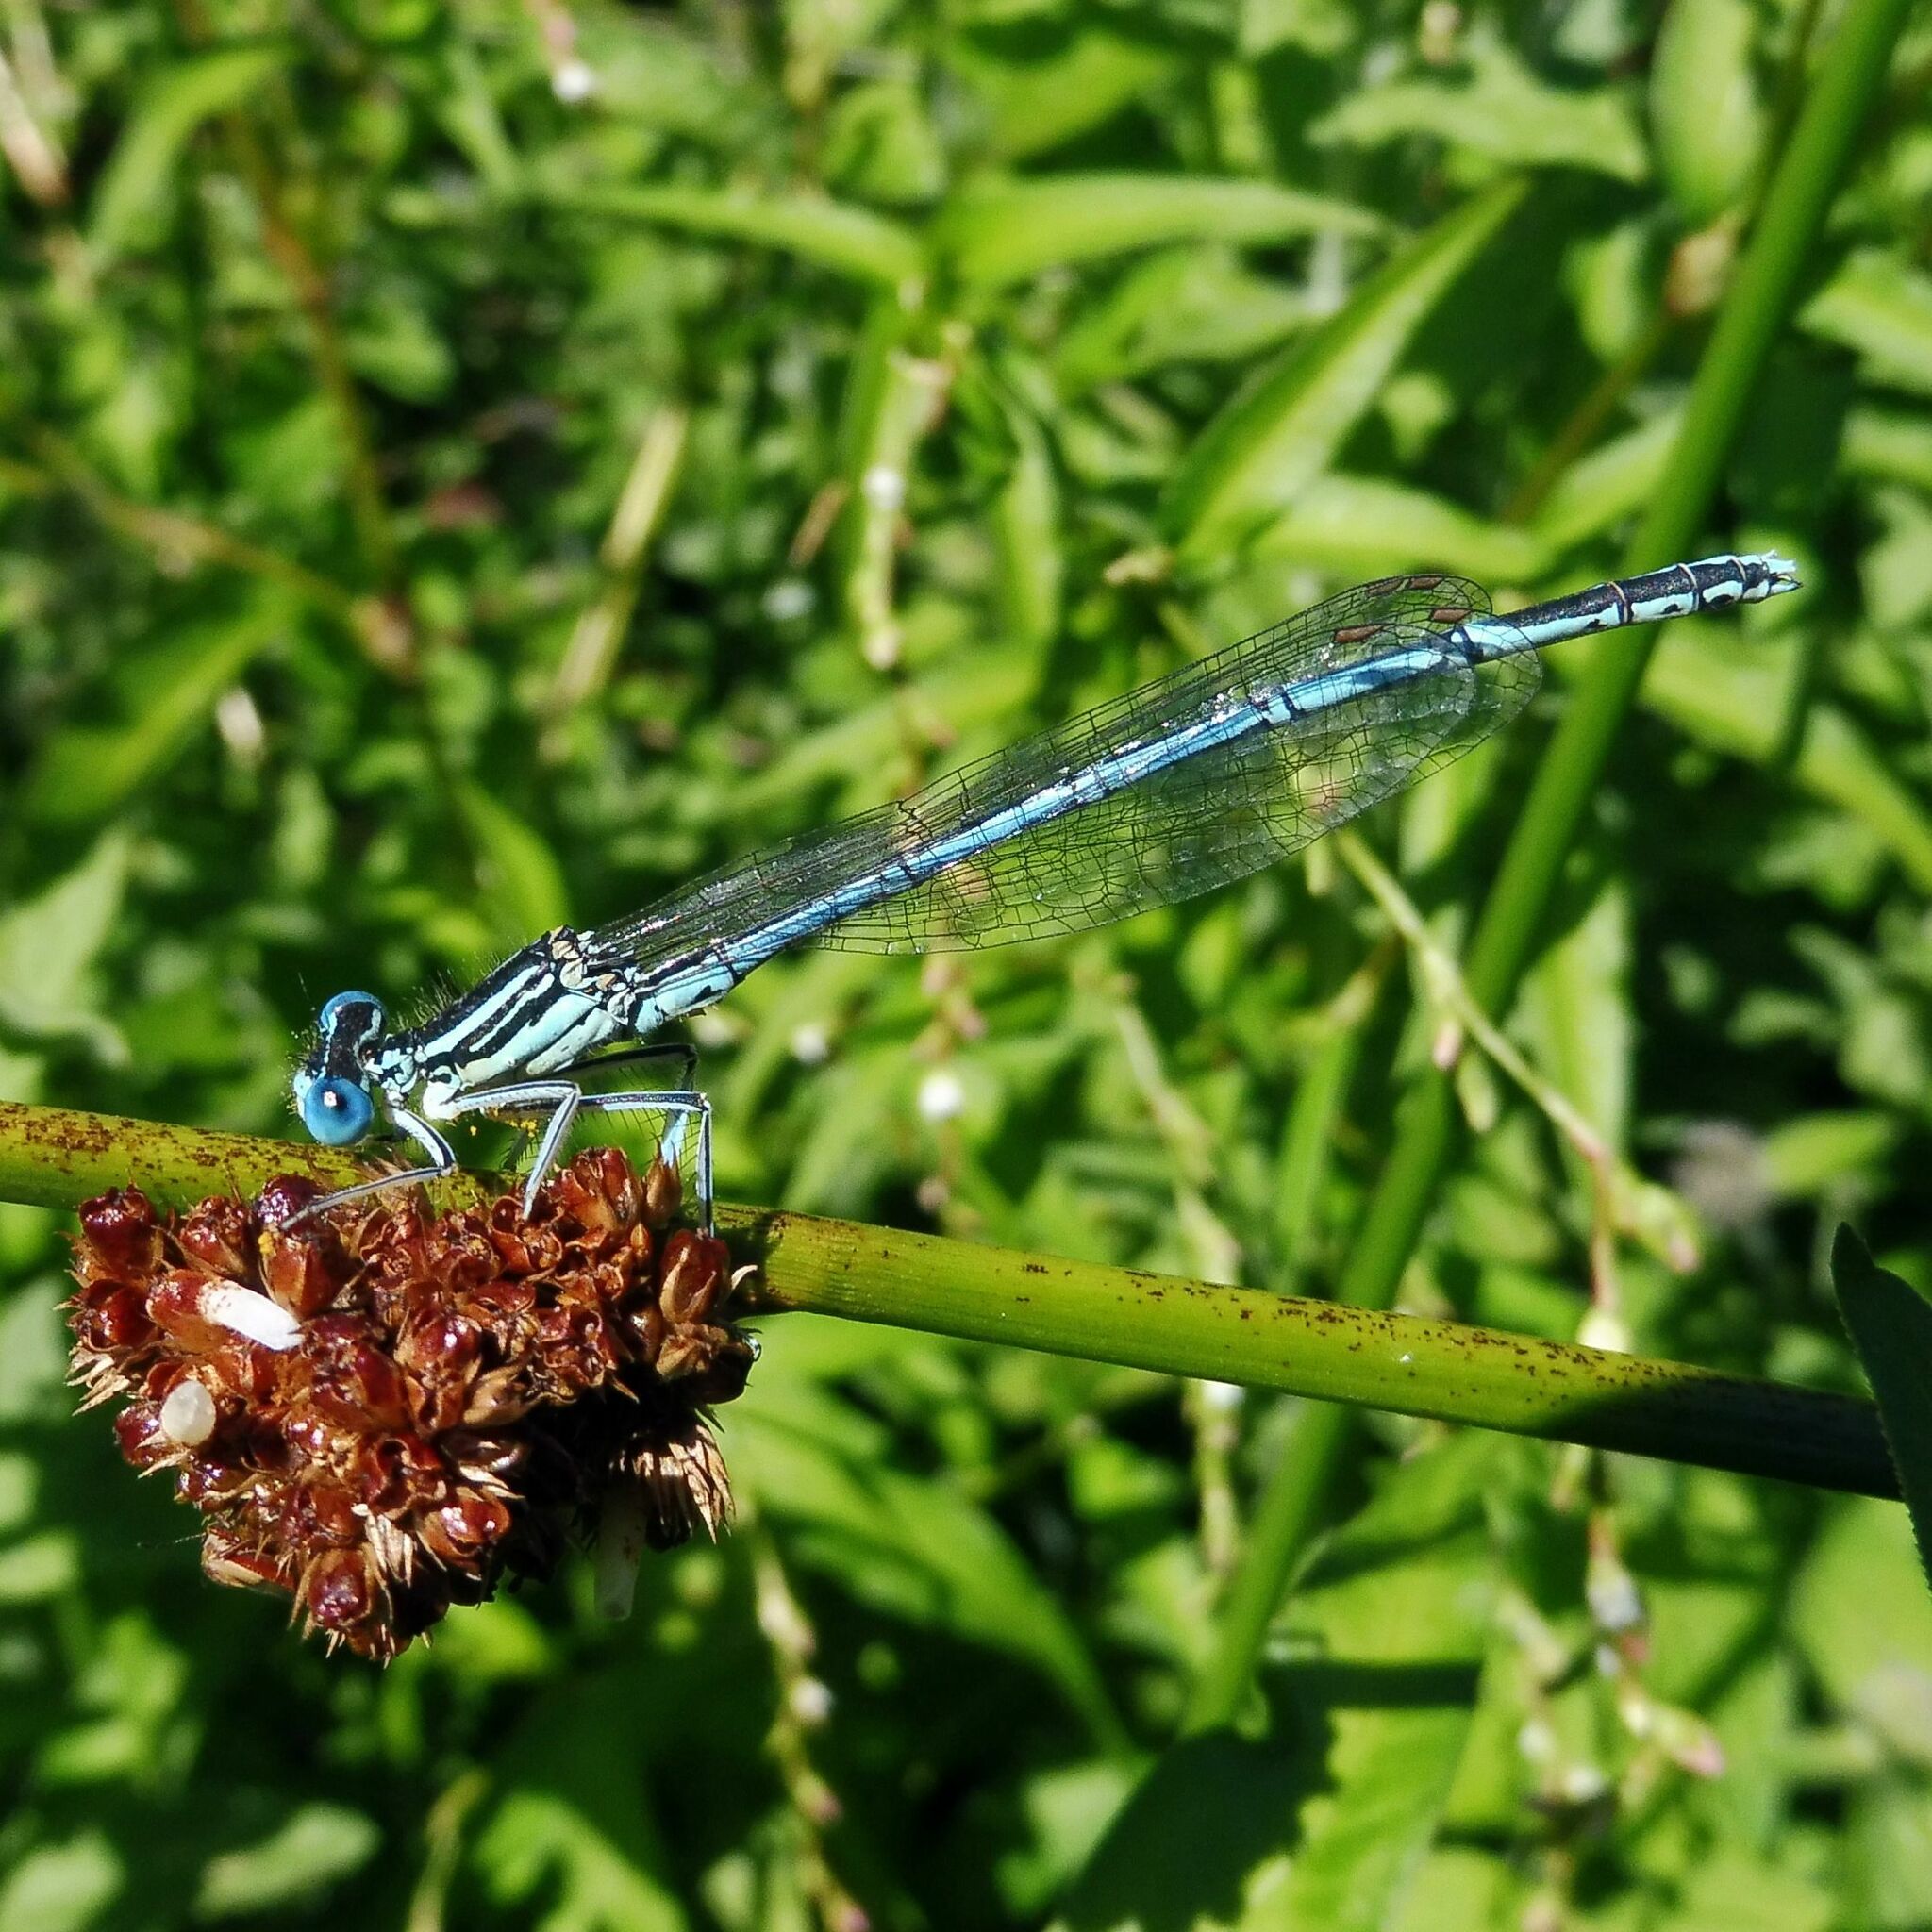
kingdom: Animalia
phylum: Arthropoda
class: Insecta
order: Odonata
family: Platycnemididae
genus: Platycnemis
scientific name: Platycnemis pennipes
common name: White-legged damselfly
